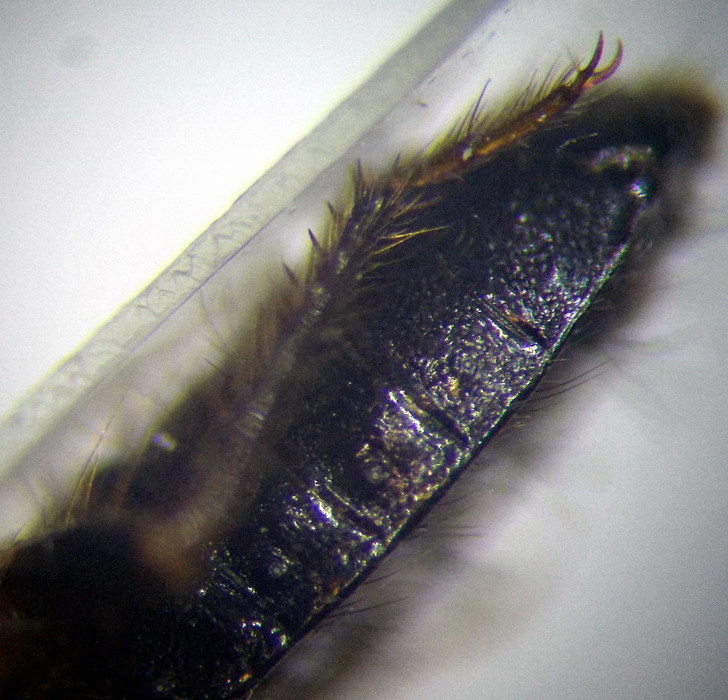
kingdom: Animalia
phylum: Arthropoda
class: Insecta
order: Hemiptera
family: Nabidae
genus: Prostemma
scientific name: Prostemma sanguineum
